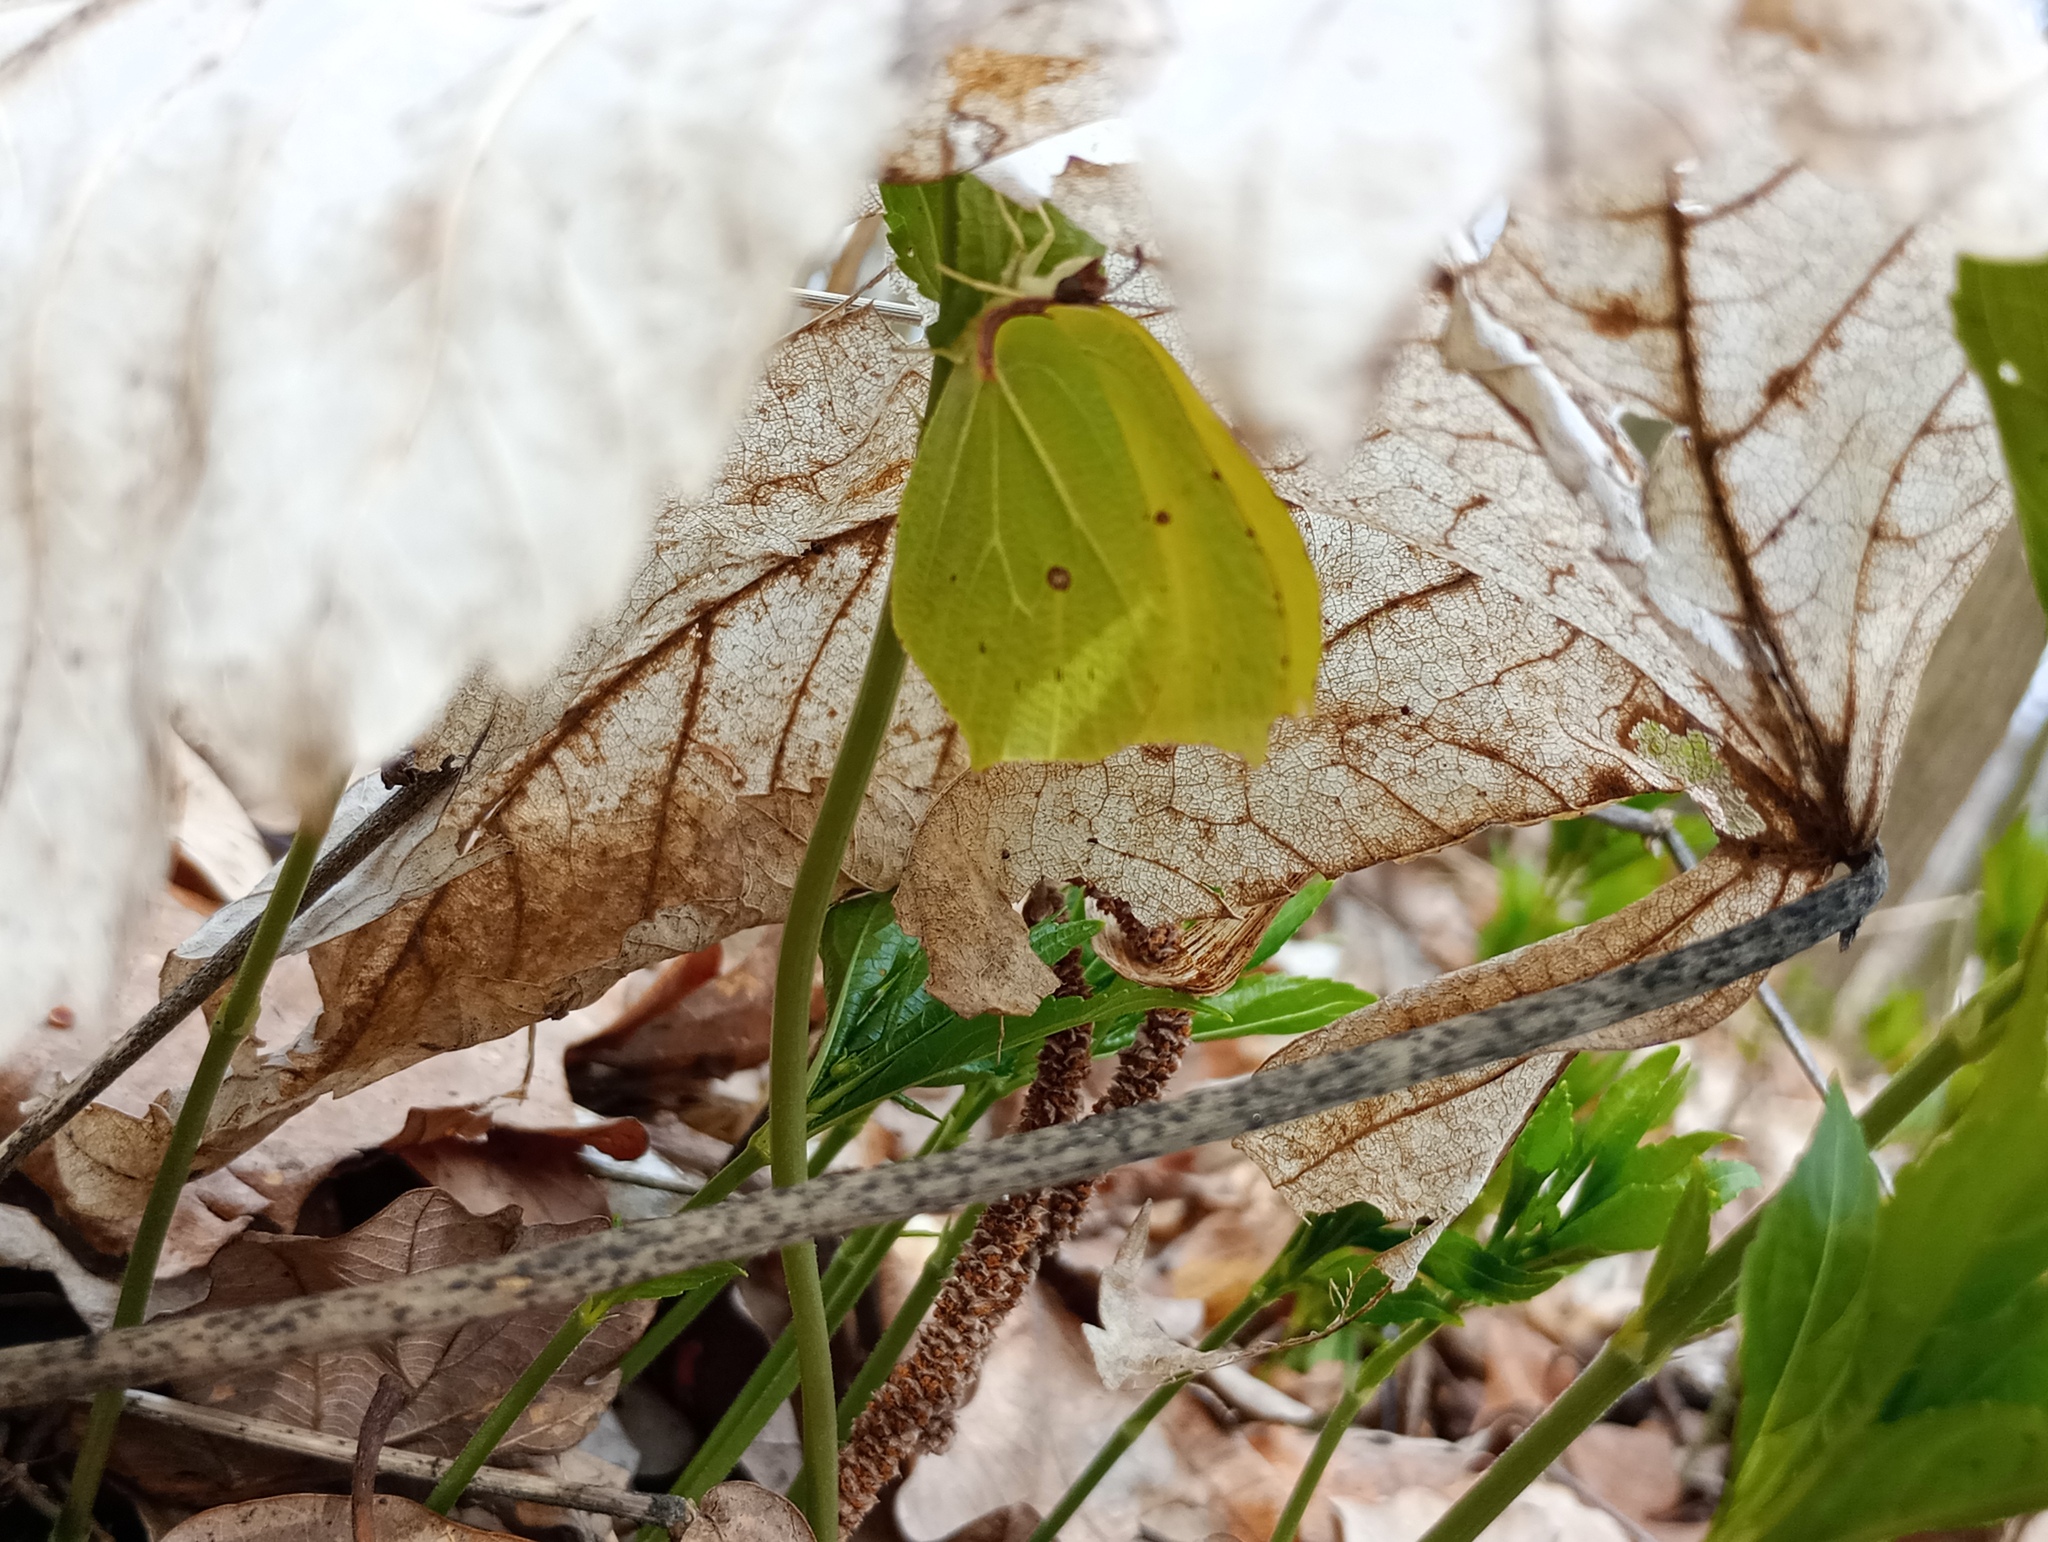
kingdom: Animalia
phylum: Arthropoda
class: Insecta
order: Lepidoptera
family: Pieridae
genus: Gonepteryx
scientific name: Gonepteryx rhamni
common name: Brimstone
